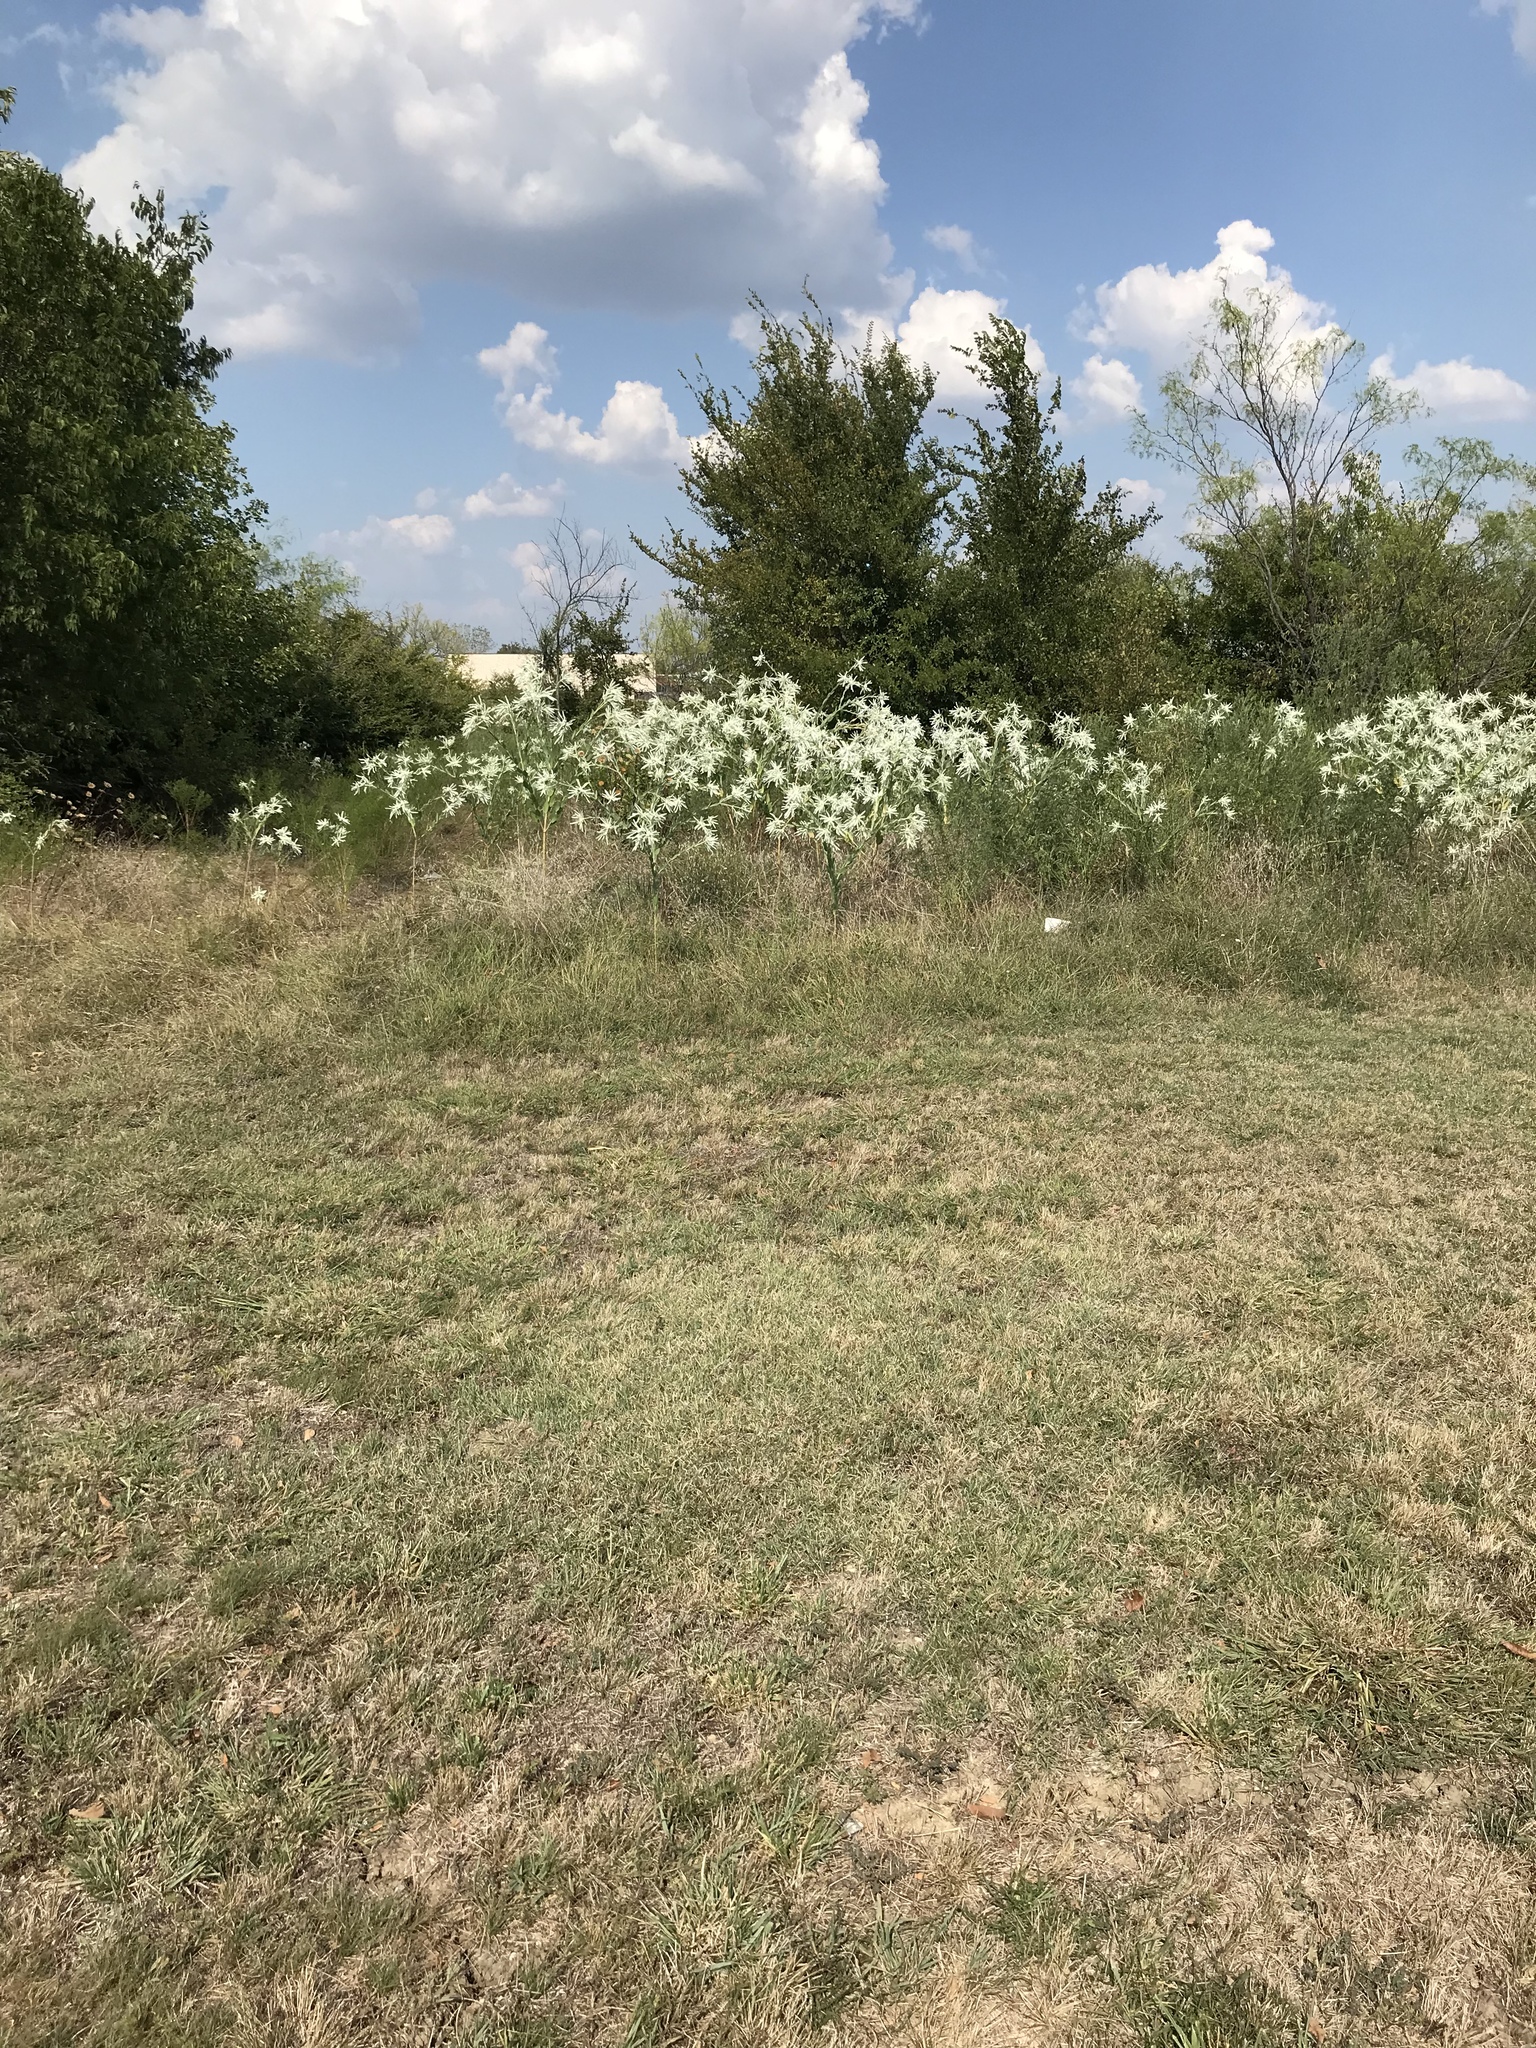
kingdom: Plantae
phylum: Tracheophyta
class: Magnoliopsida
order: Malpighiales
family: Euphorbiaceae
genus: Euphorbia
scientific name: Euphorbia bicolor
